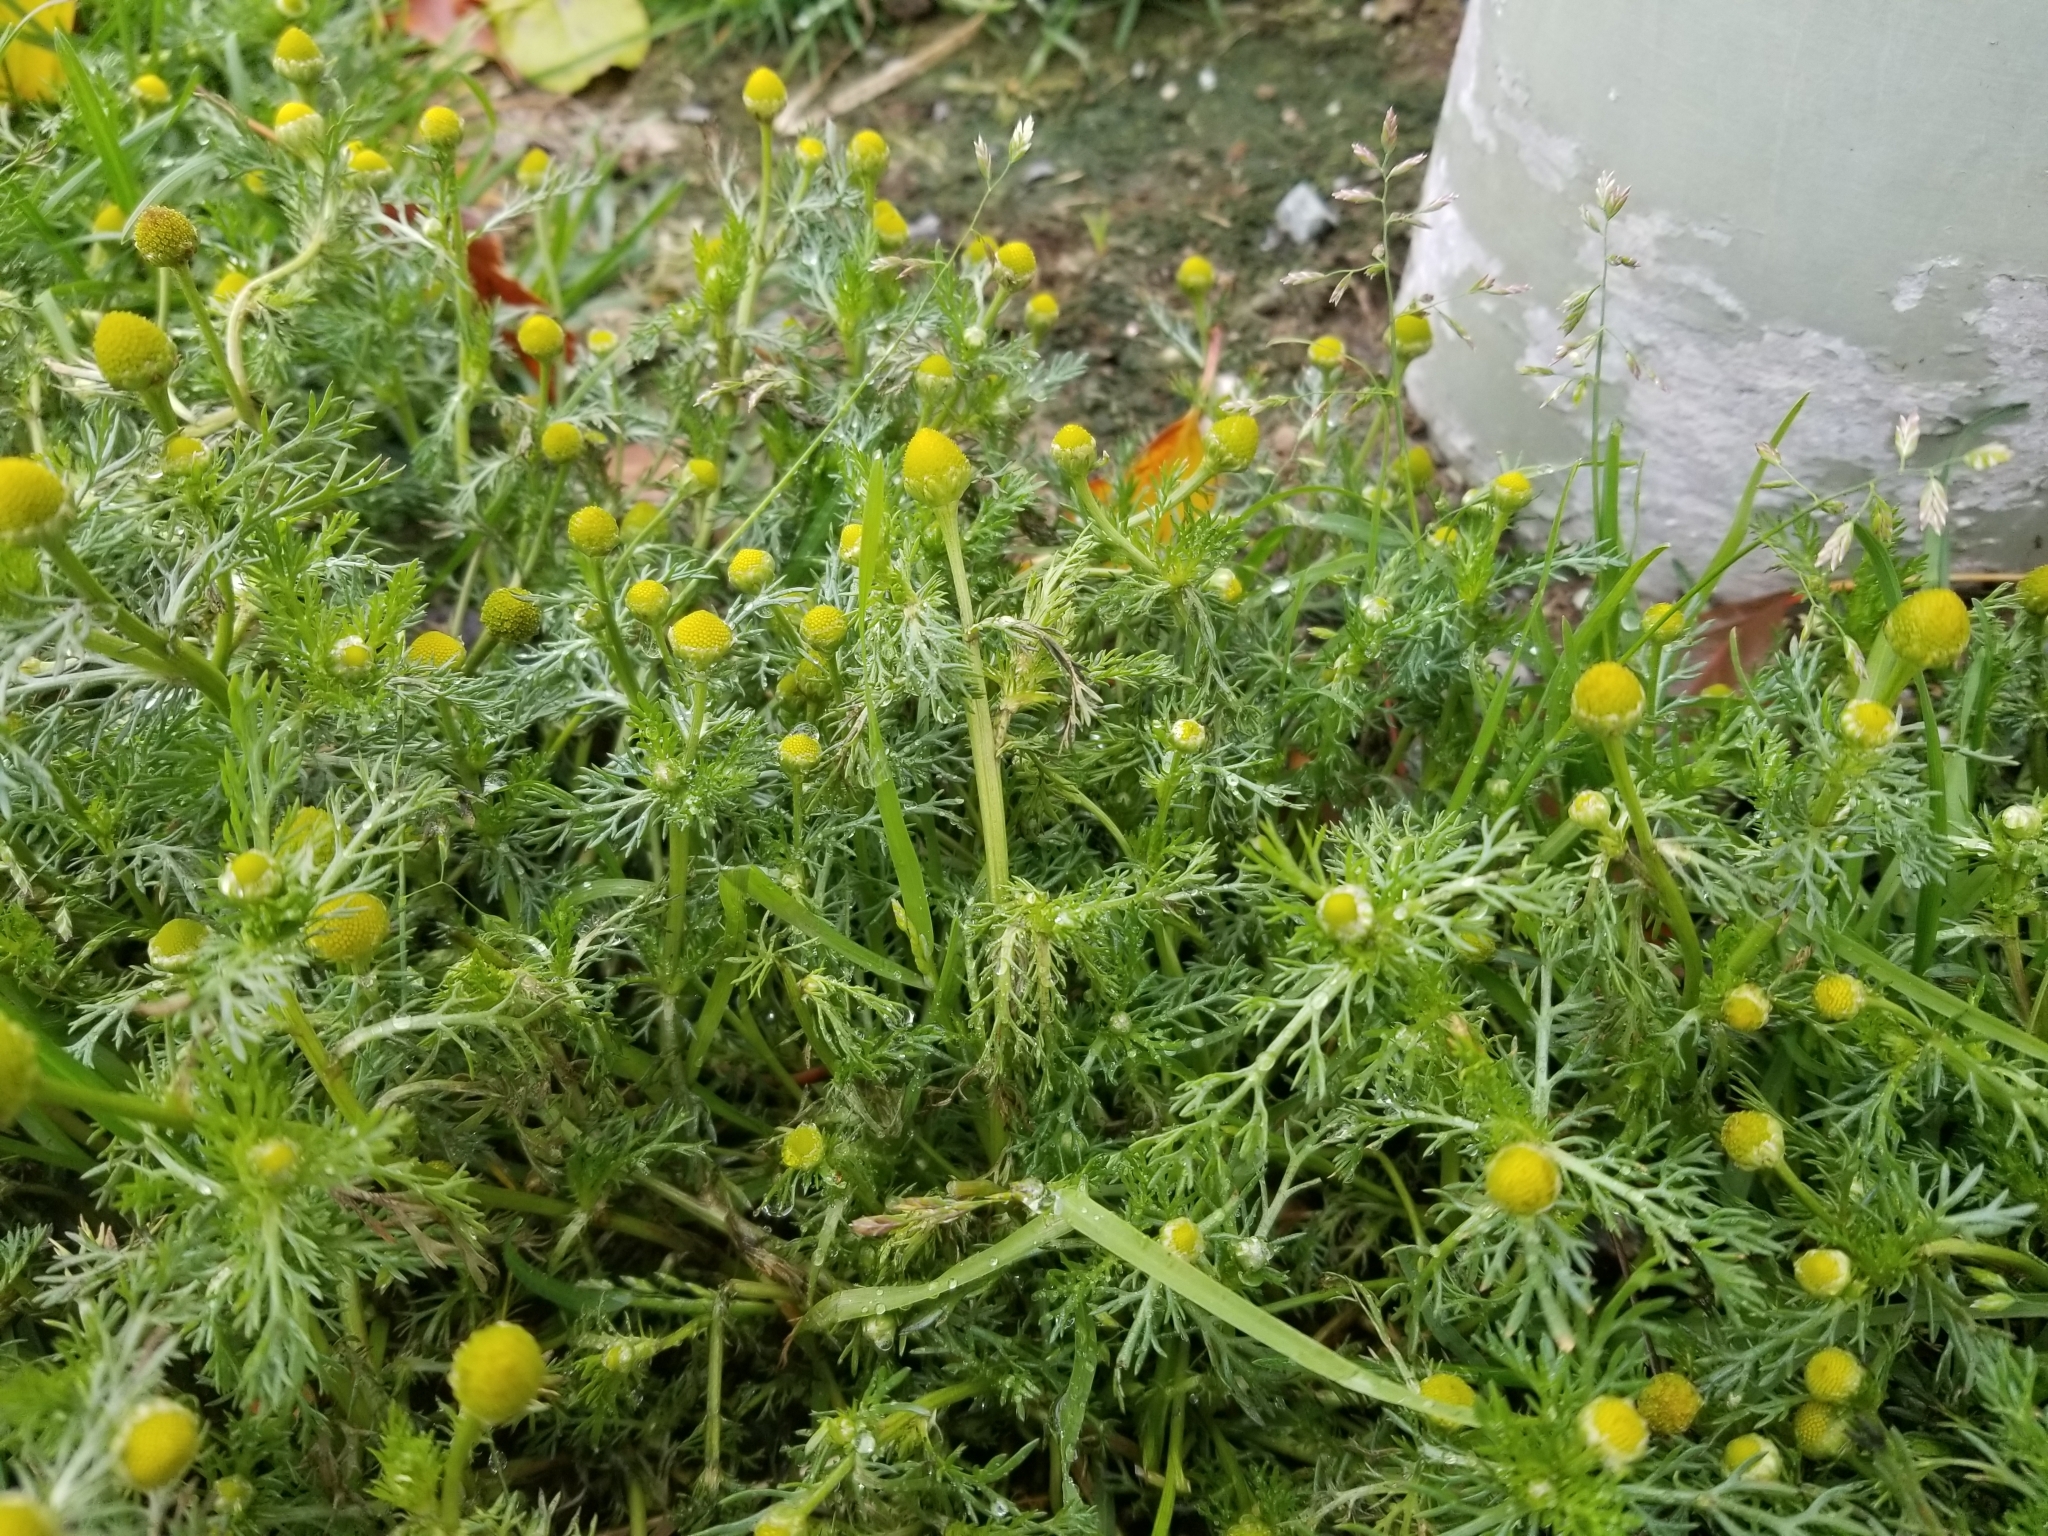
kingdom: Plantae
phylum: Tracheophyta
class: Magnoliopsida
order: Asterales
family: Asteraceae
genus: Matricaria
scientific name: Matricaria discoidea
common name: Disc mayweed
